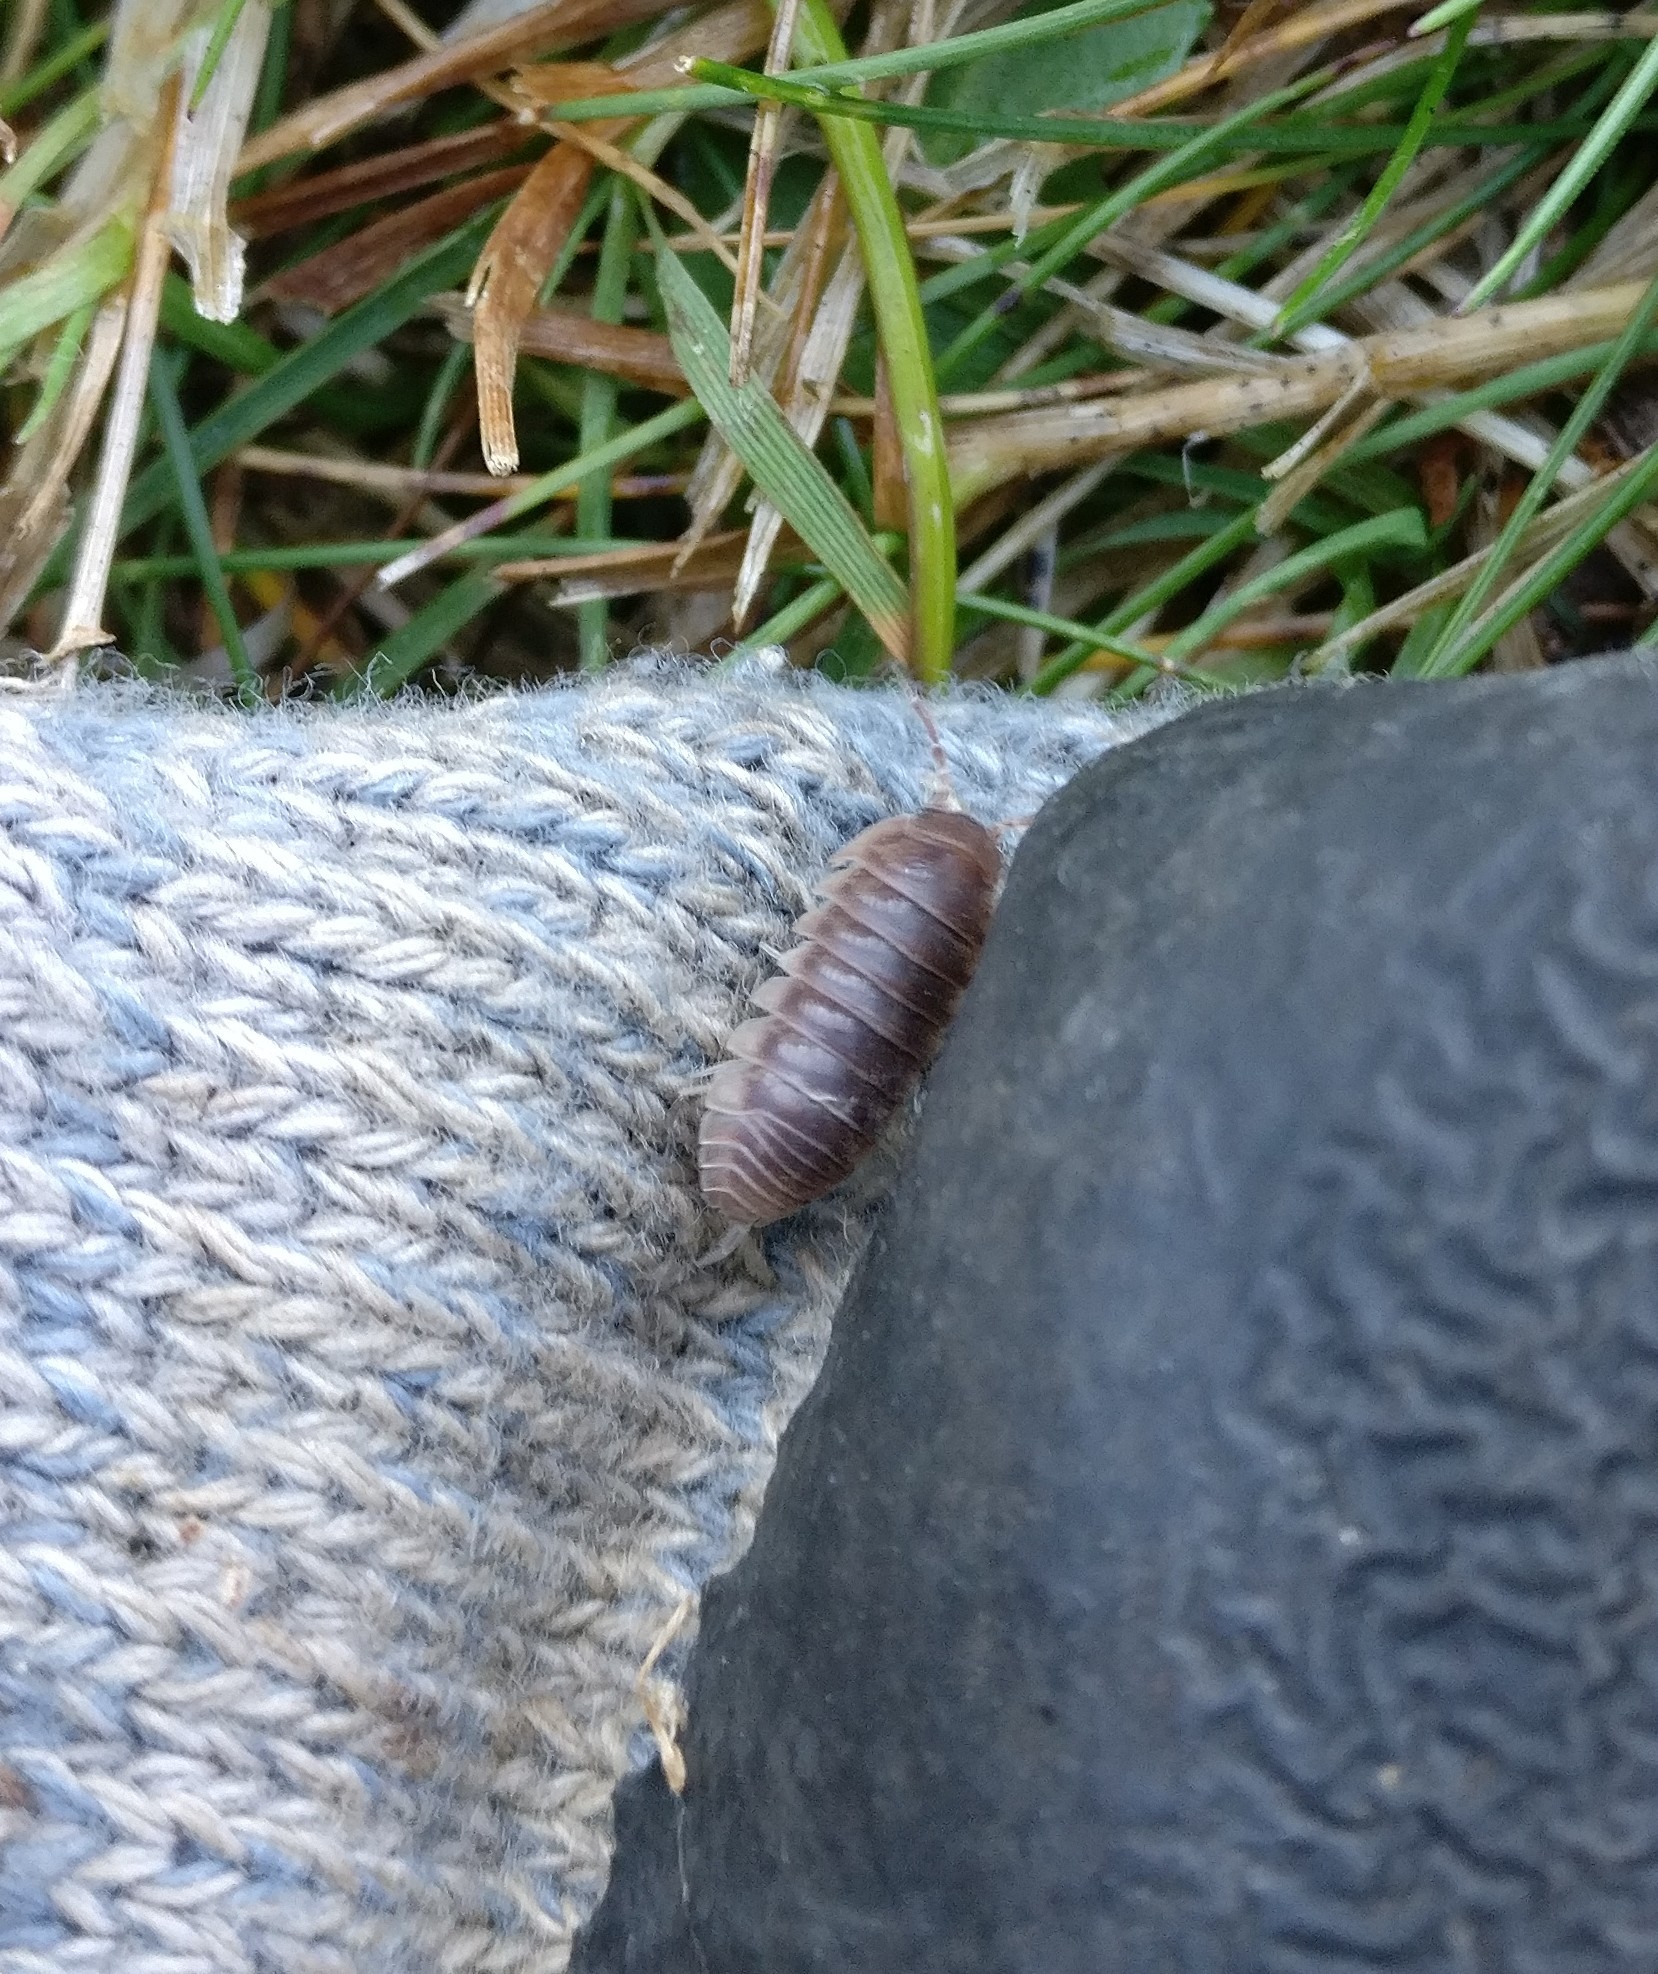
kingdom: Animalia
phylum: Arthropoda
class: Malacostraca
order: Isopoda
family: Armadillidiidae
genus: Eluma
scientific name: Eluma caelata
